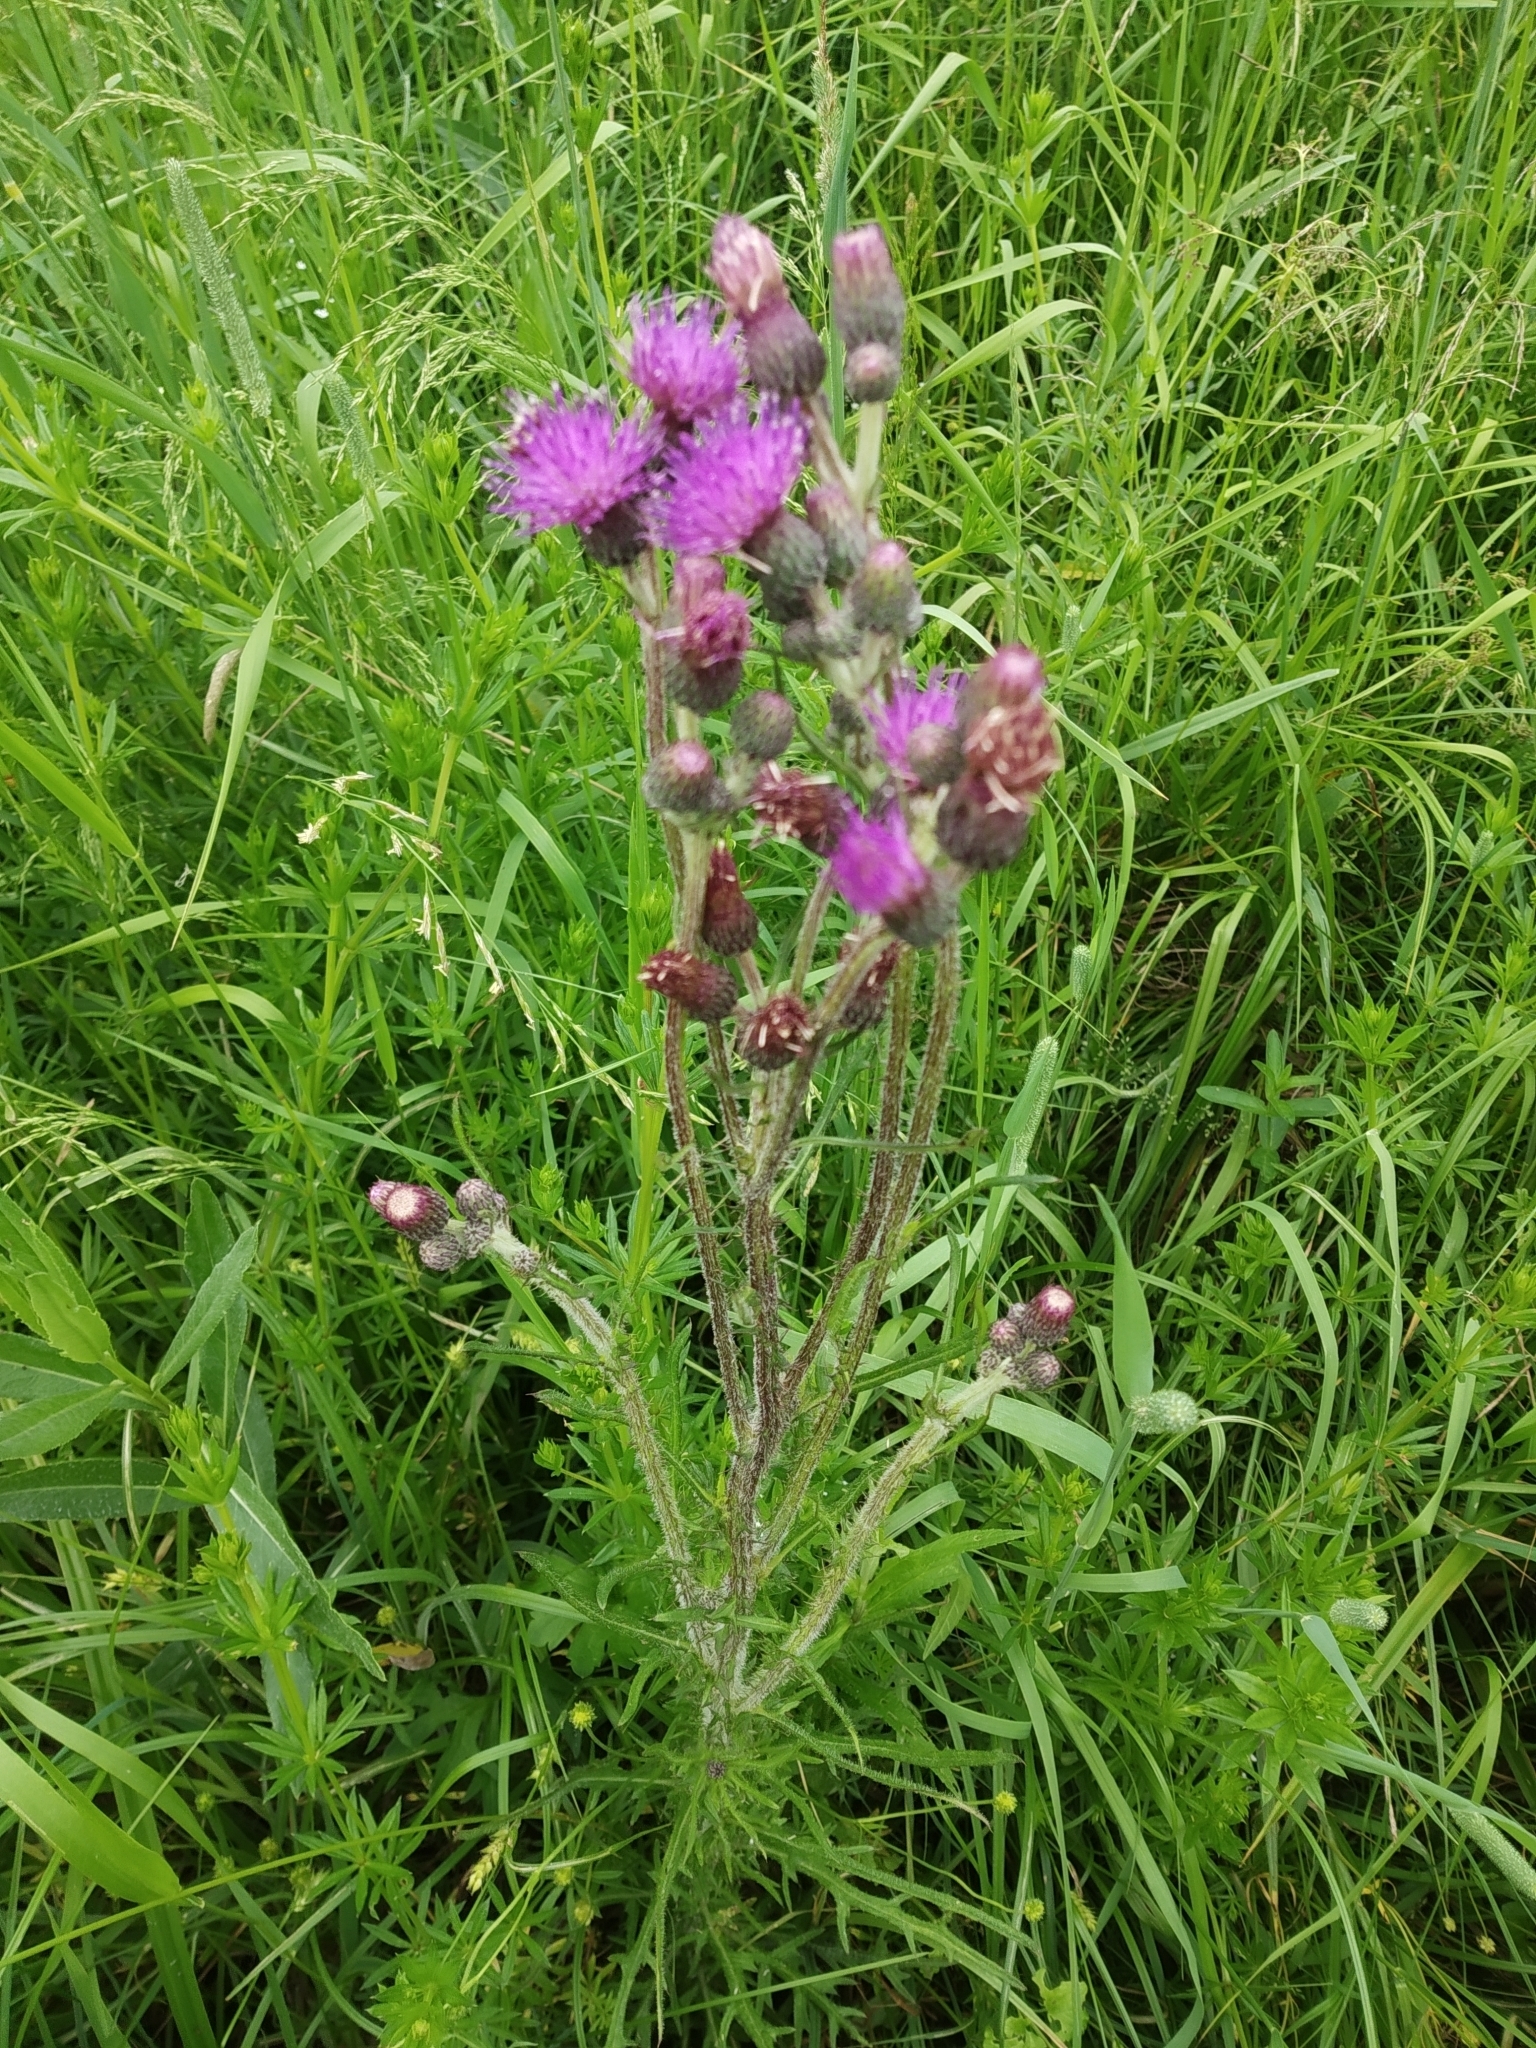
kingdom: Plantae
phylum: Tracheophyta
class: Magnoliopsida
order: Asterales
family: Asteraceae
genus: Cirsium
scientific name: Cirsium palustre
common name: Marsh thistle
